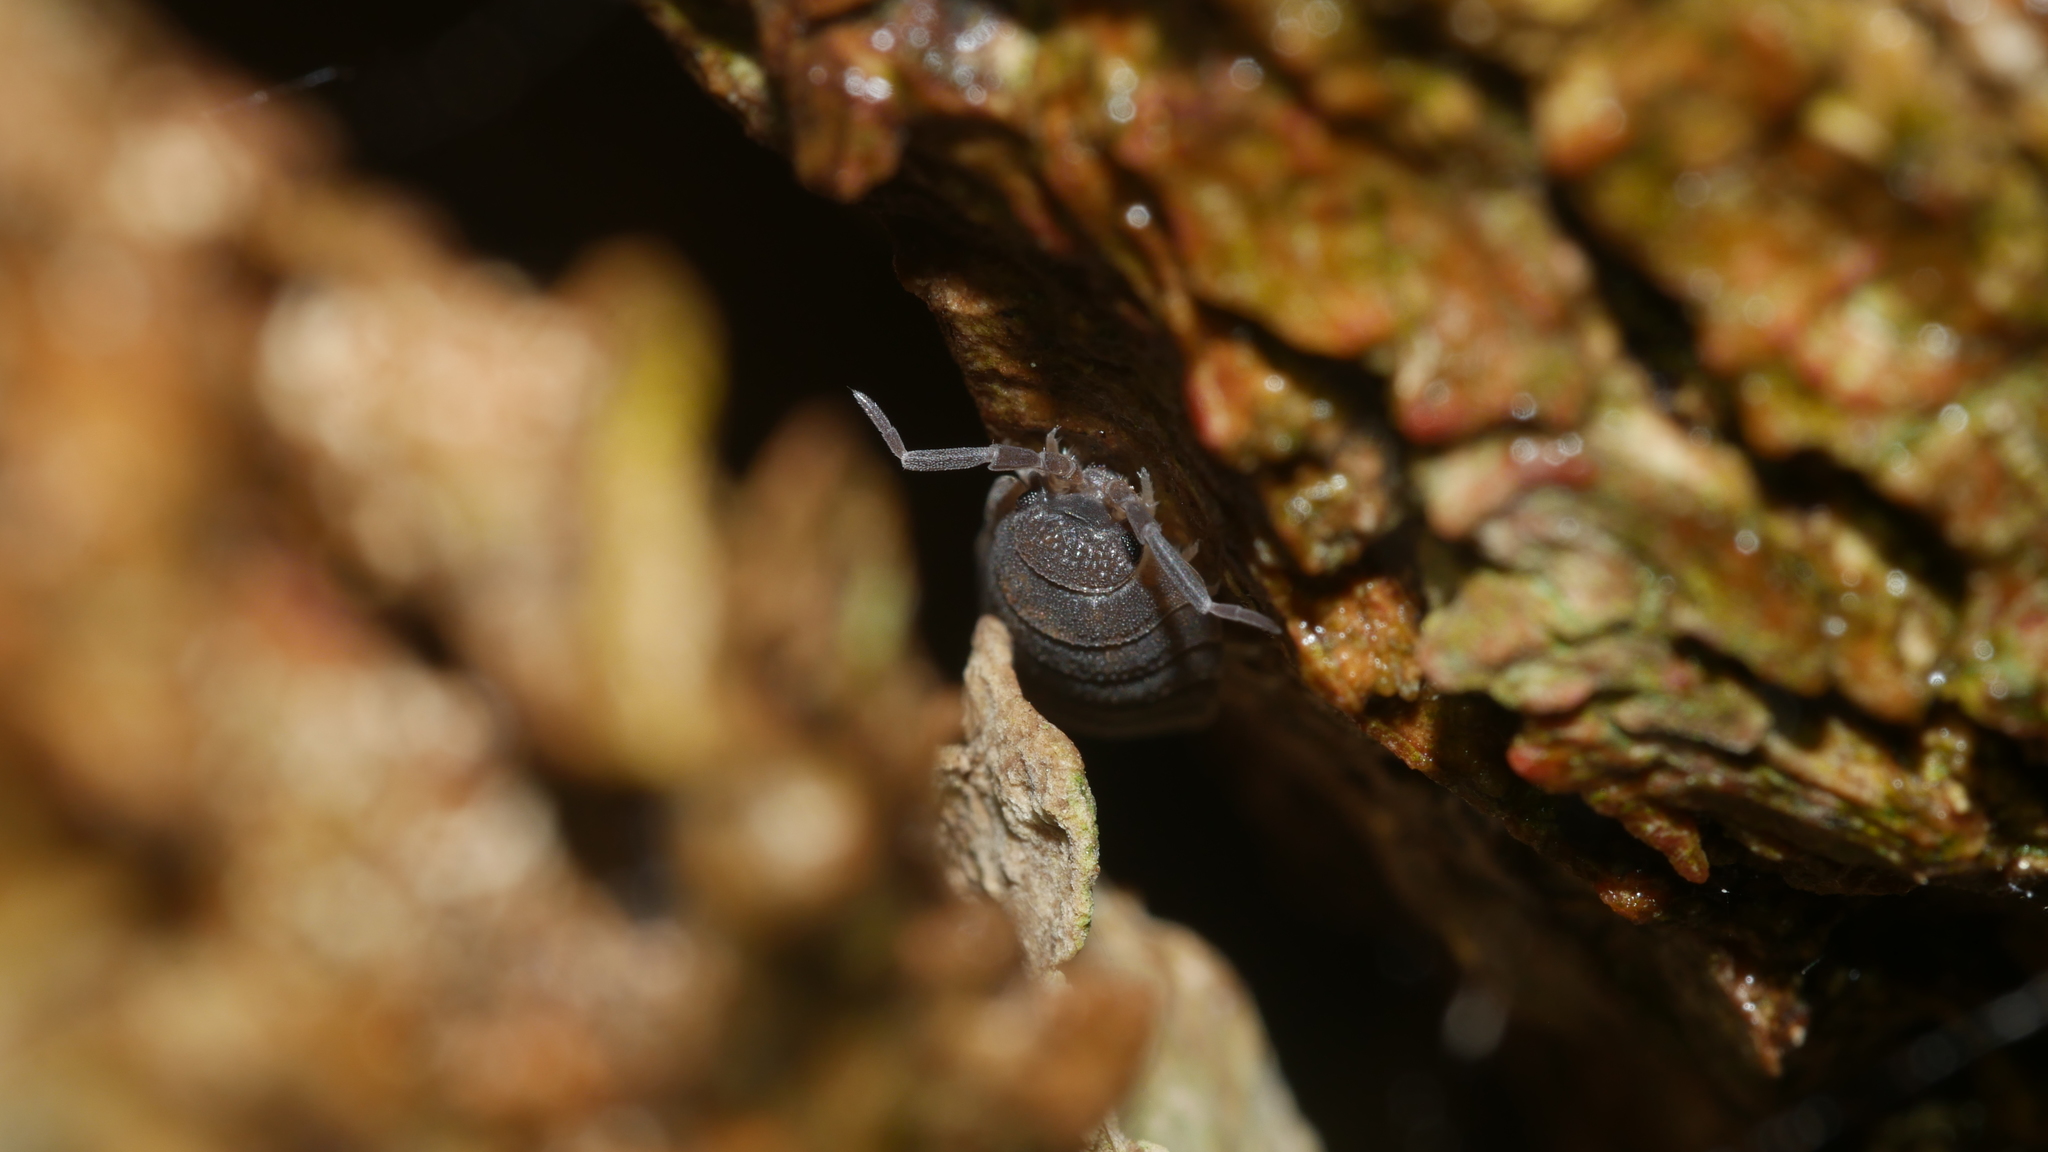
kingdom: Animalia
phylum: Arthropoda
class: Malacostraca
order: Isopoda
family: Porcellionidae
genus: Porcellio
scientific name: Porcellio scaber
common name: Common rough woodlouse
